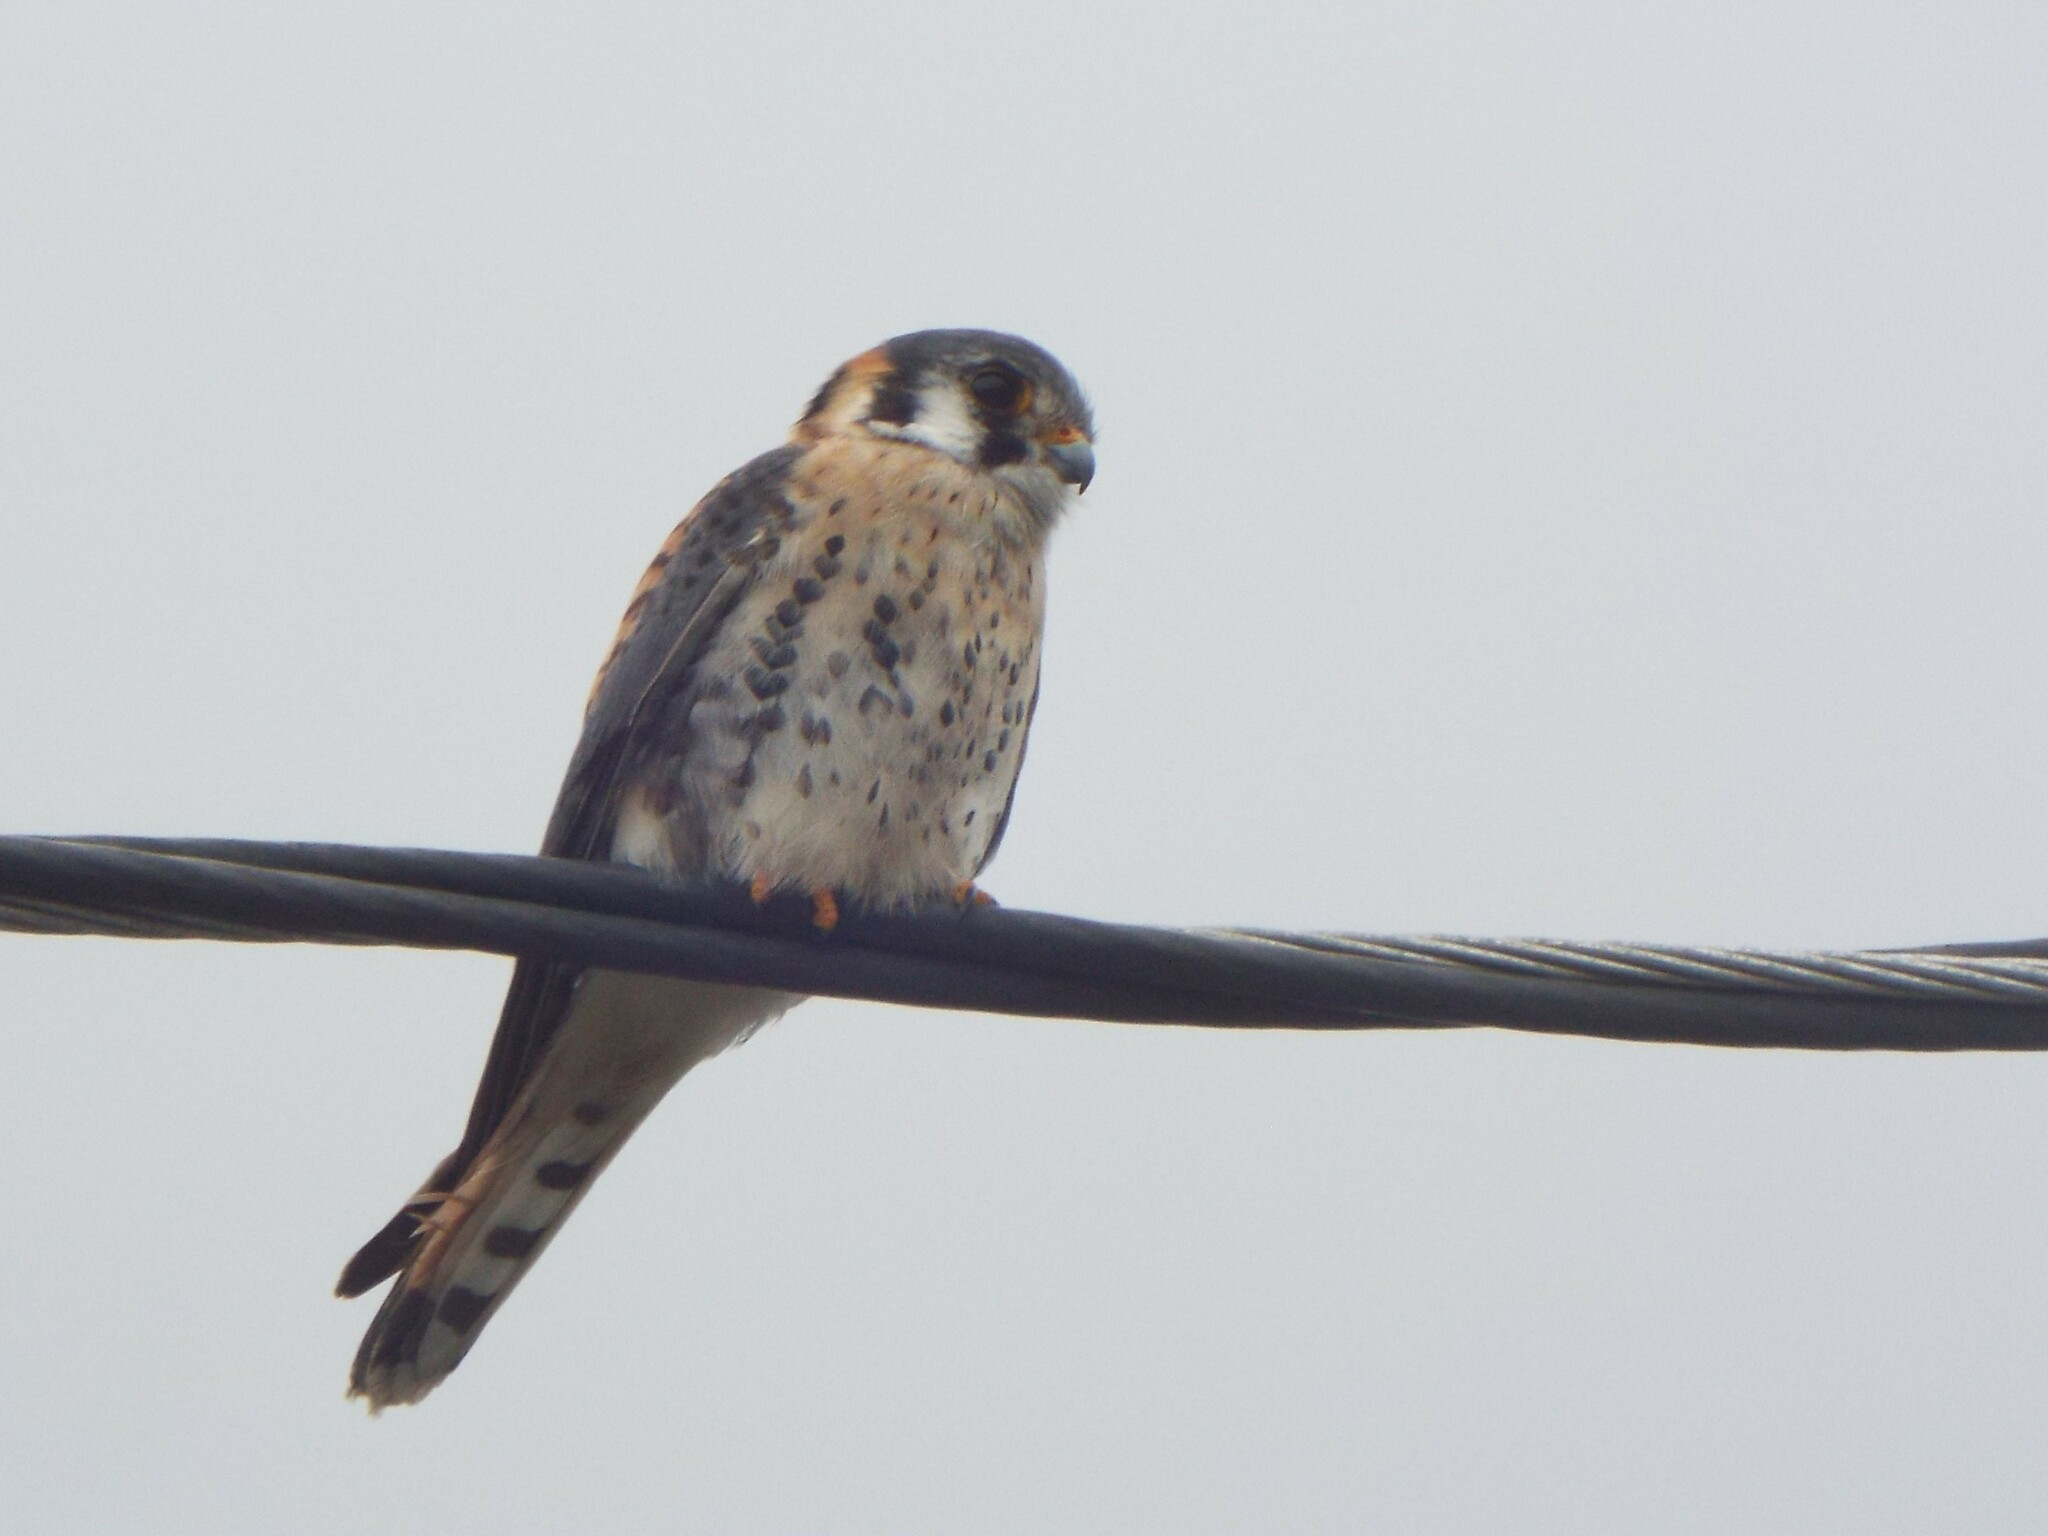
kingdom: Animalia
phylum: Chordata
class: Aves
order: Falconiformes
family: Falconidae
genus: Falco
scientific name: Falco sparverius
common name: American kestrel
